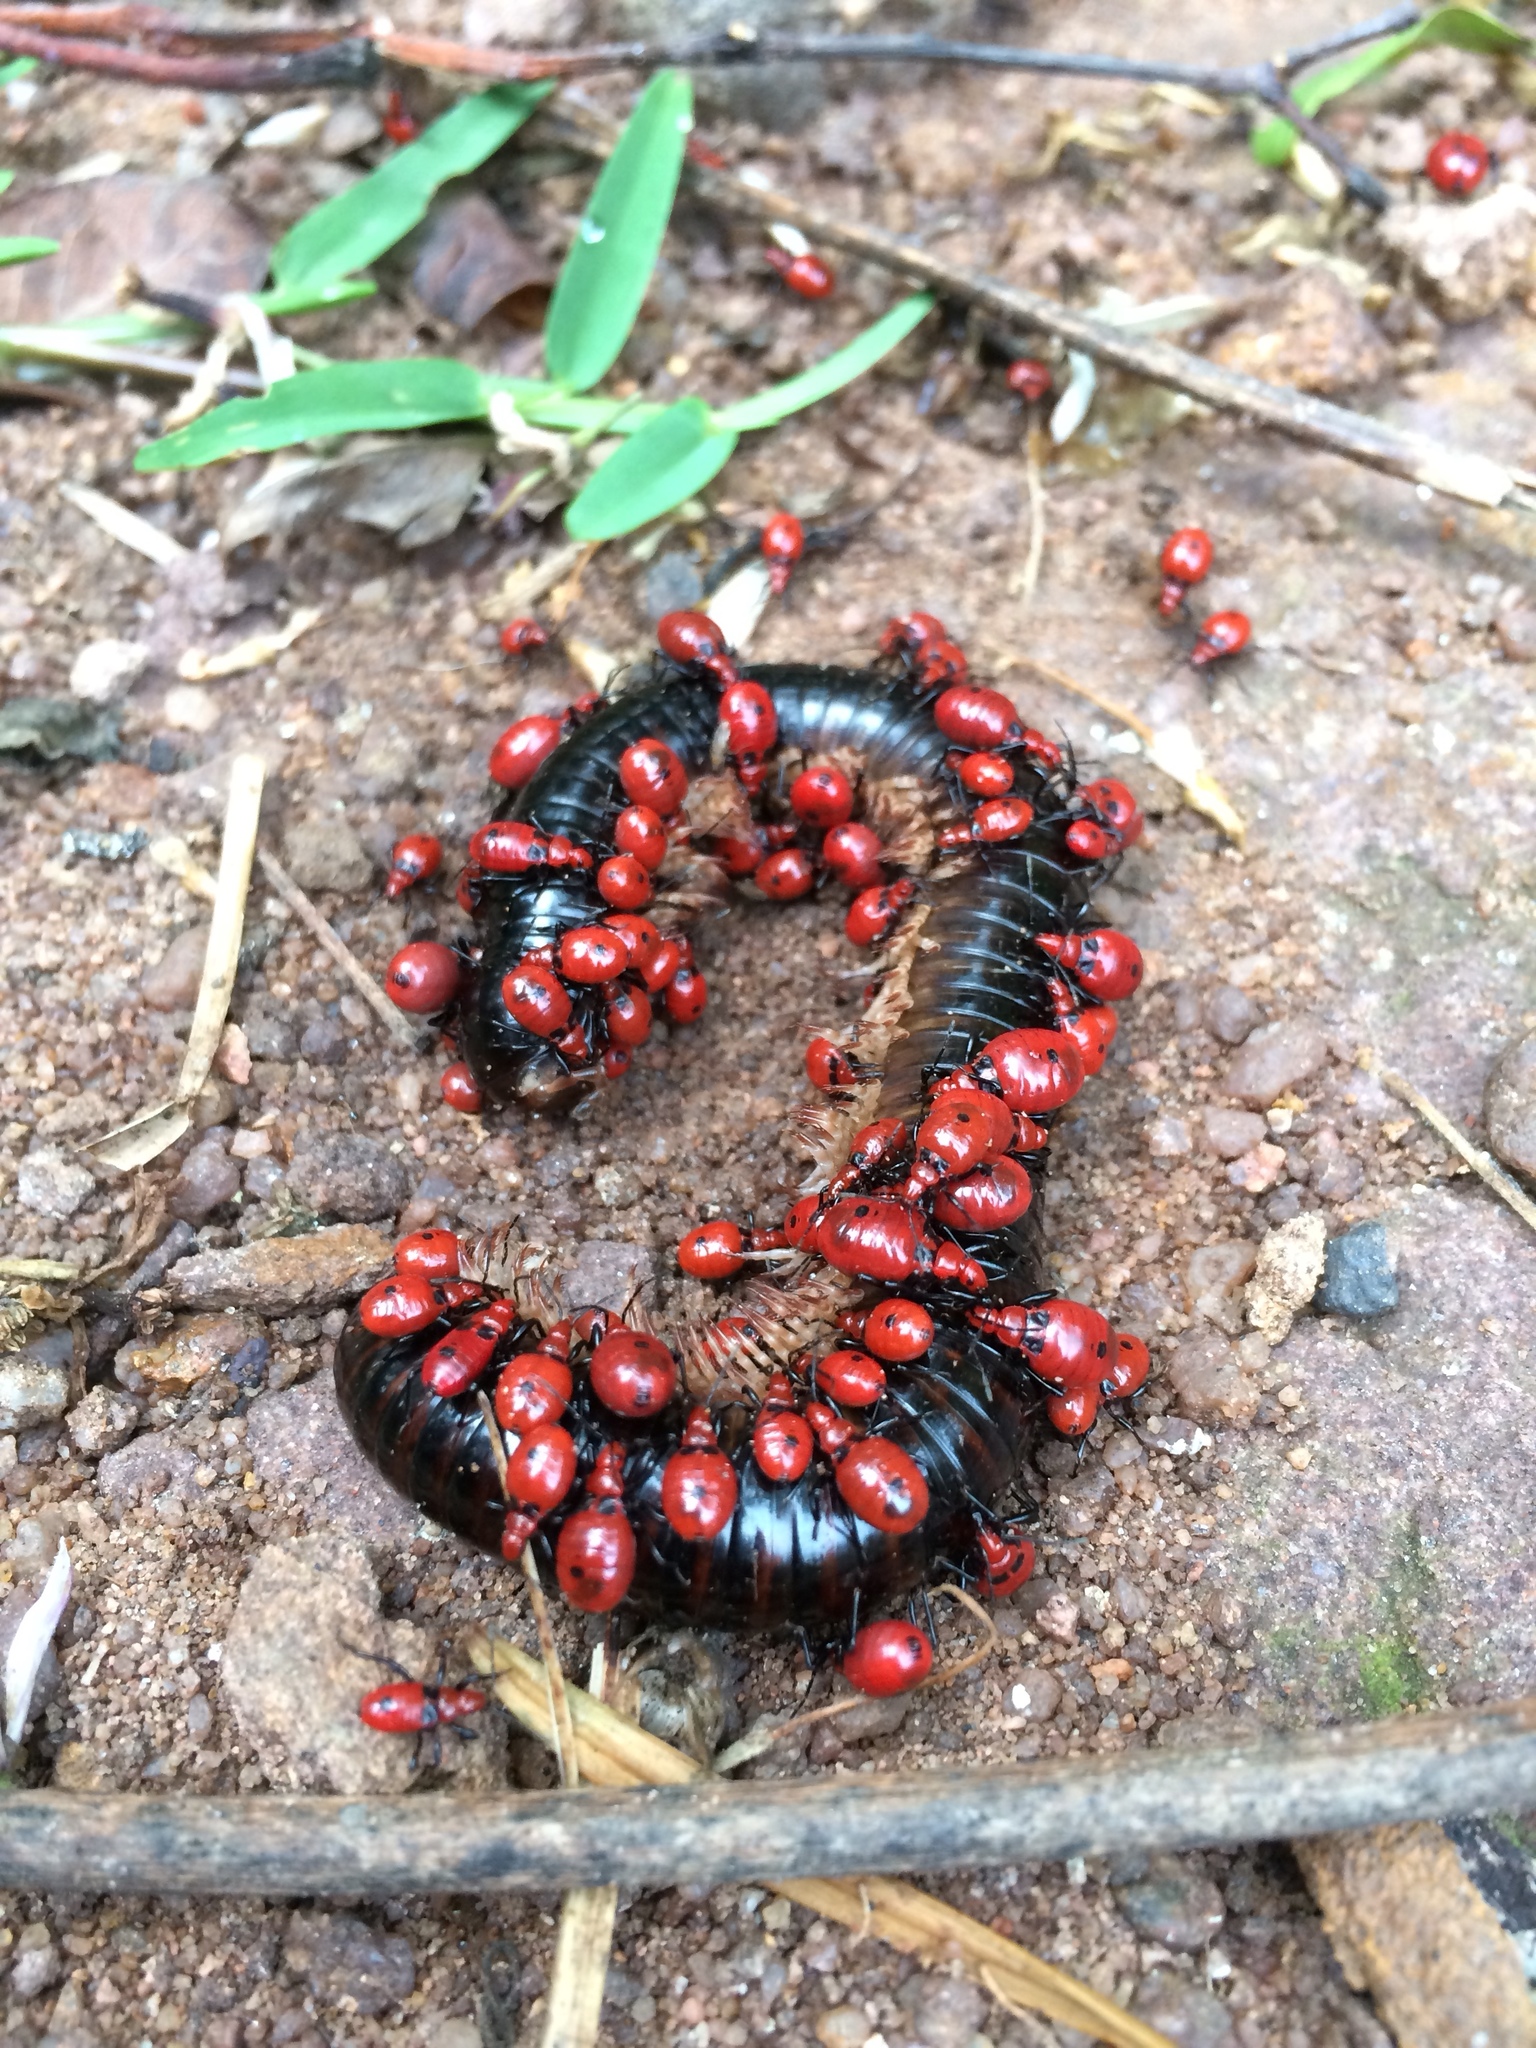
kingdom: Animalia
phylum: Arthropoda
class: Insecta
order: Hemiptera
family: Reduviidae
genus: Ectrichodia
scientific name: Ectrichodia crux
